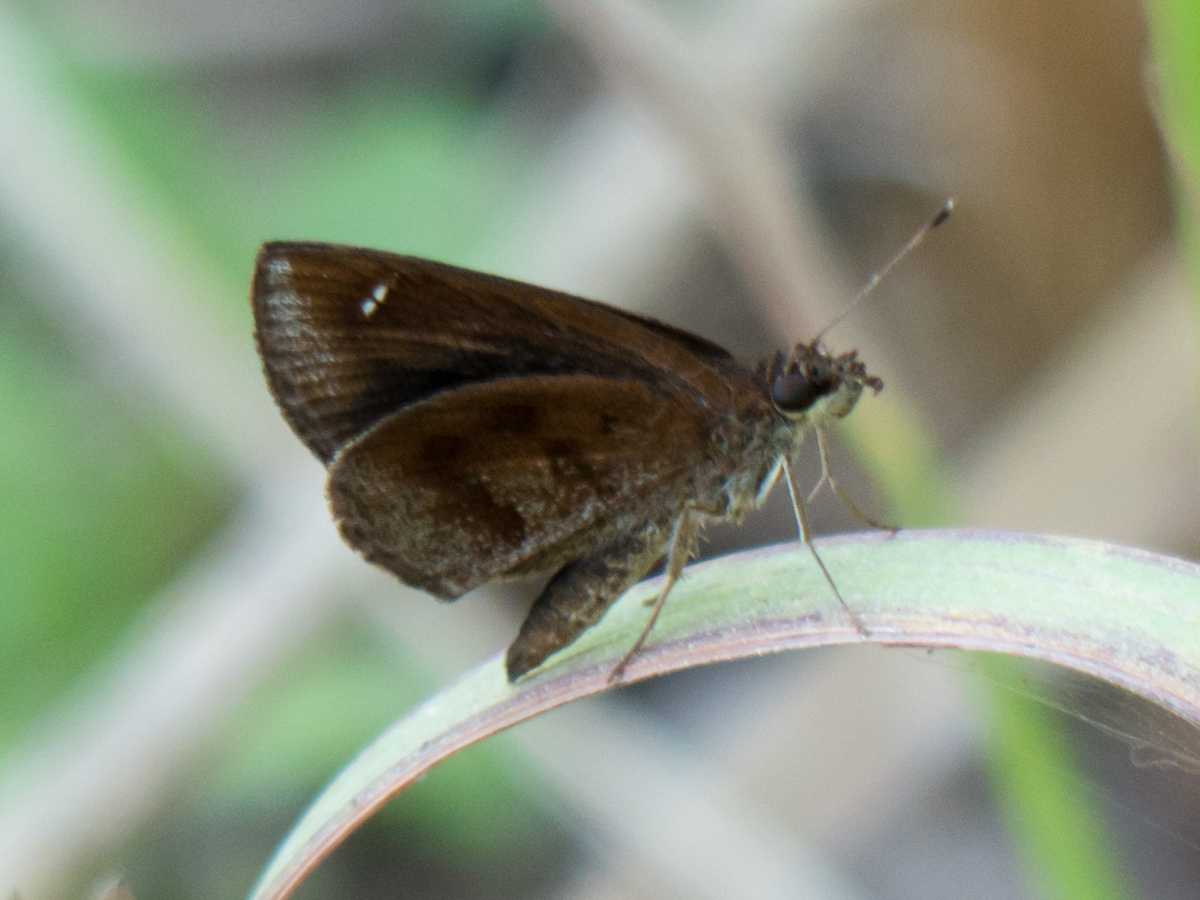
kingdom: Animalia
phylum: Arthropoda
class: Insecta
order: Lepidoptera
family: Hesperiidae
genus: Astictopterus
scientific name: Astictopterus jama
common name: Forest hopper
